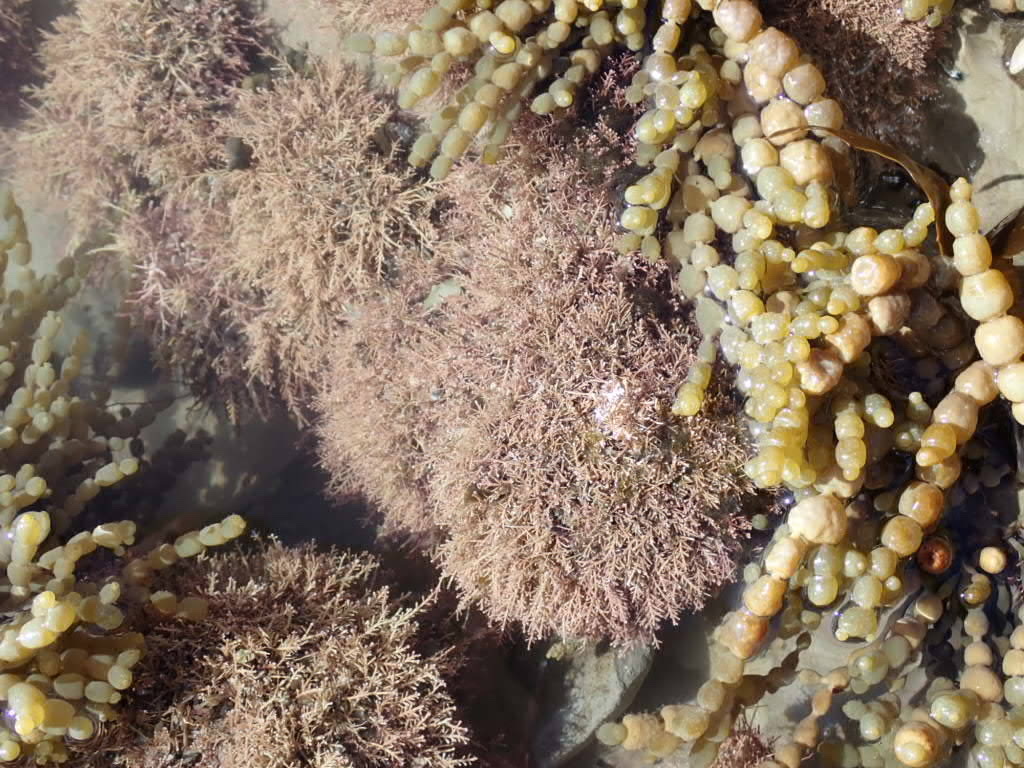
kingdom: Plantae
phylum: Rhodophyta
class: Florideophyceae
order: Corallinales
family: Corallinaceae
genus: Corallina
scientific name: Corallina officinalis
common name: Coral weed
